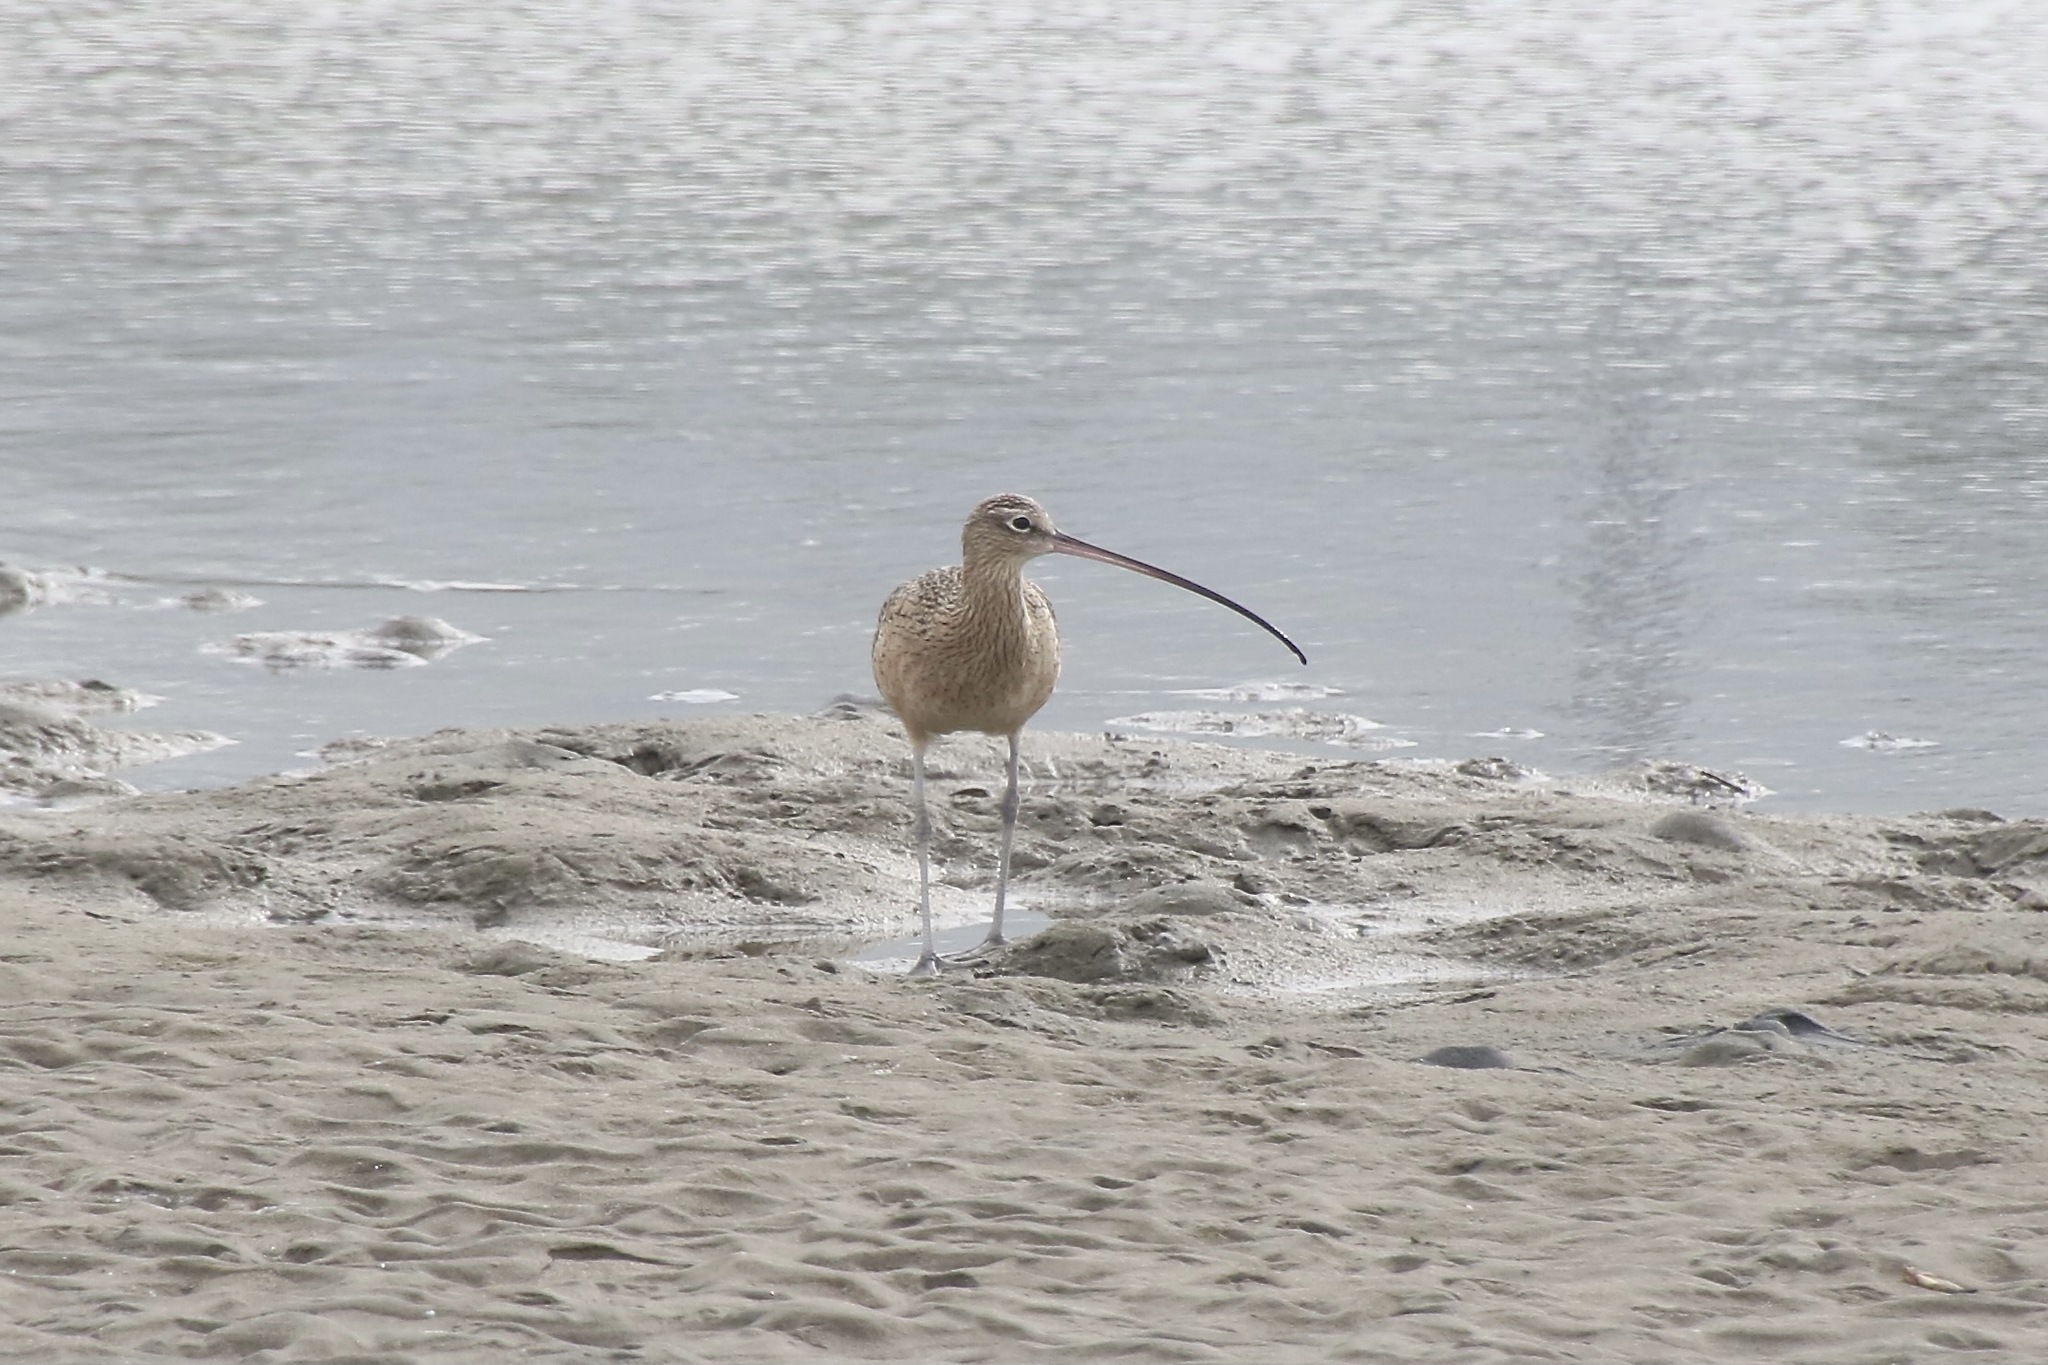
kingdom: Animalia
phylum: Chordata
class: Aves
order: Charadriiformes
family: Scolopacidae
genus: Numenius
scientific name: Numenius americanus
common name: Long-billed curlew
